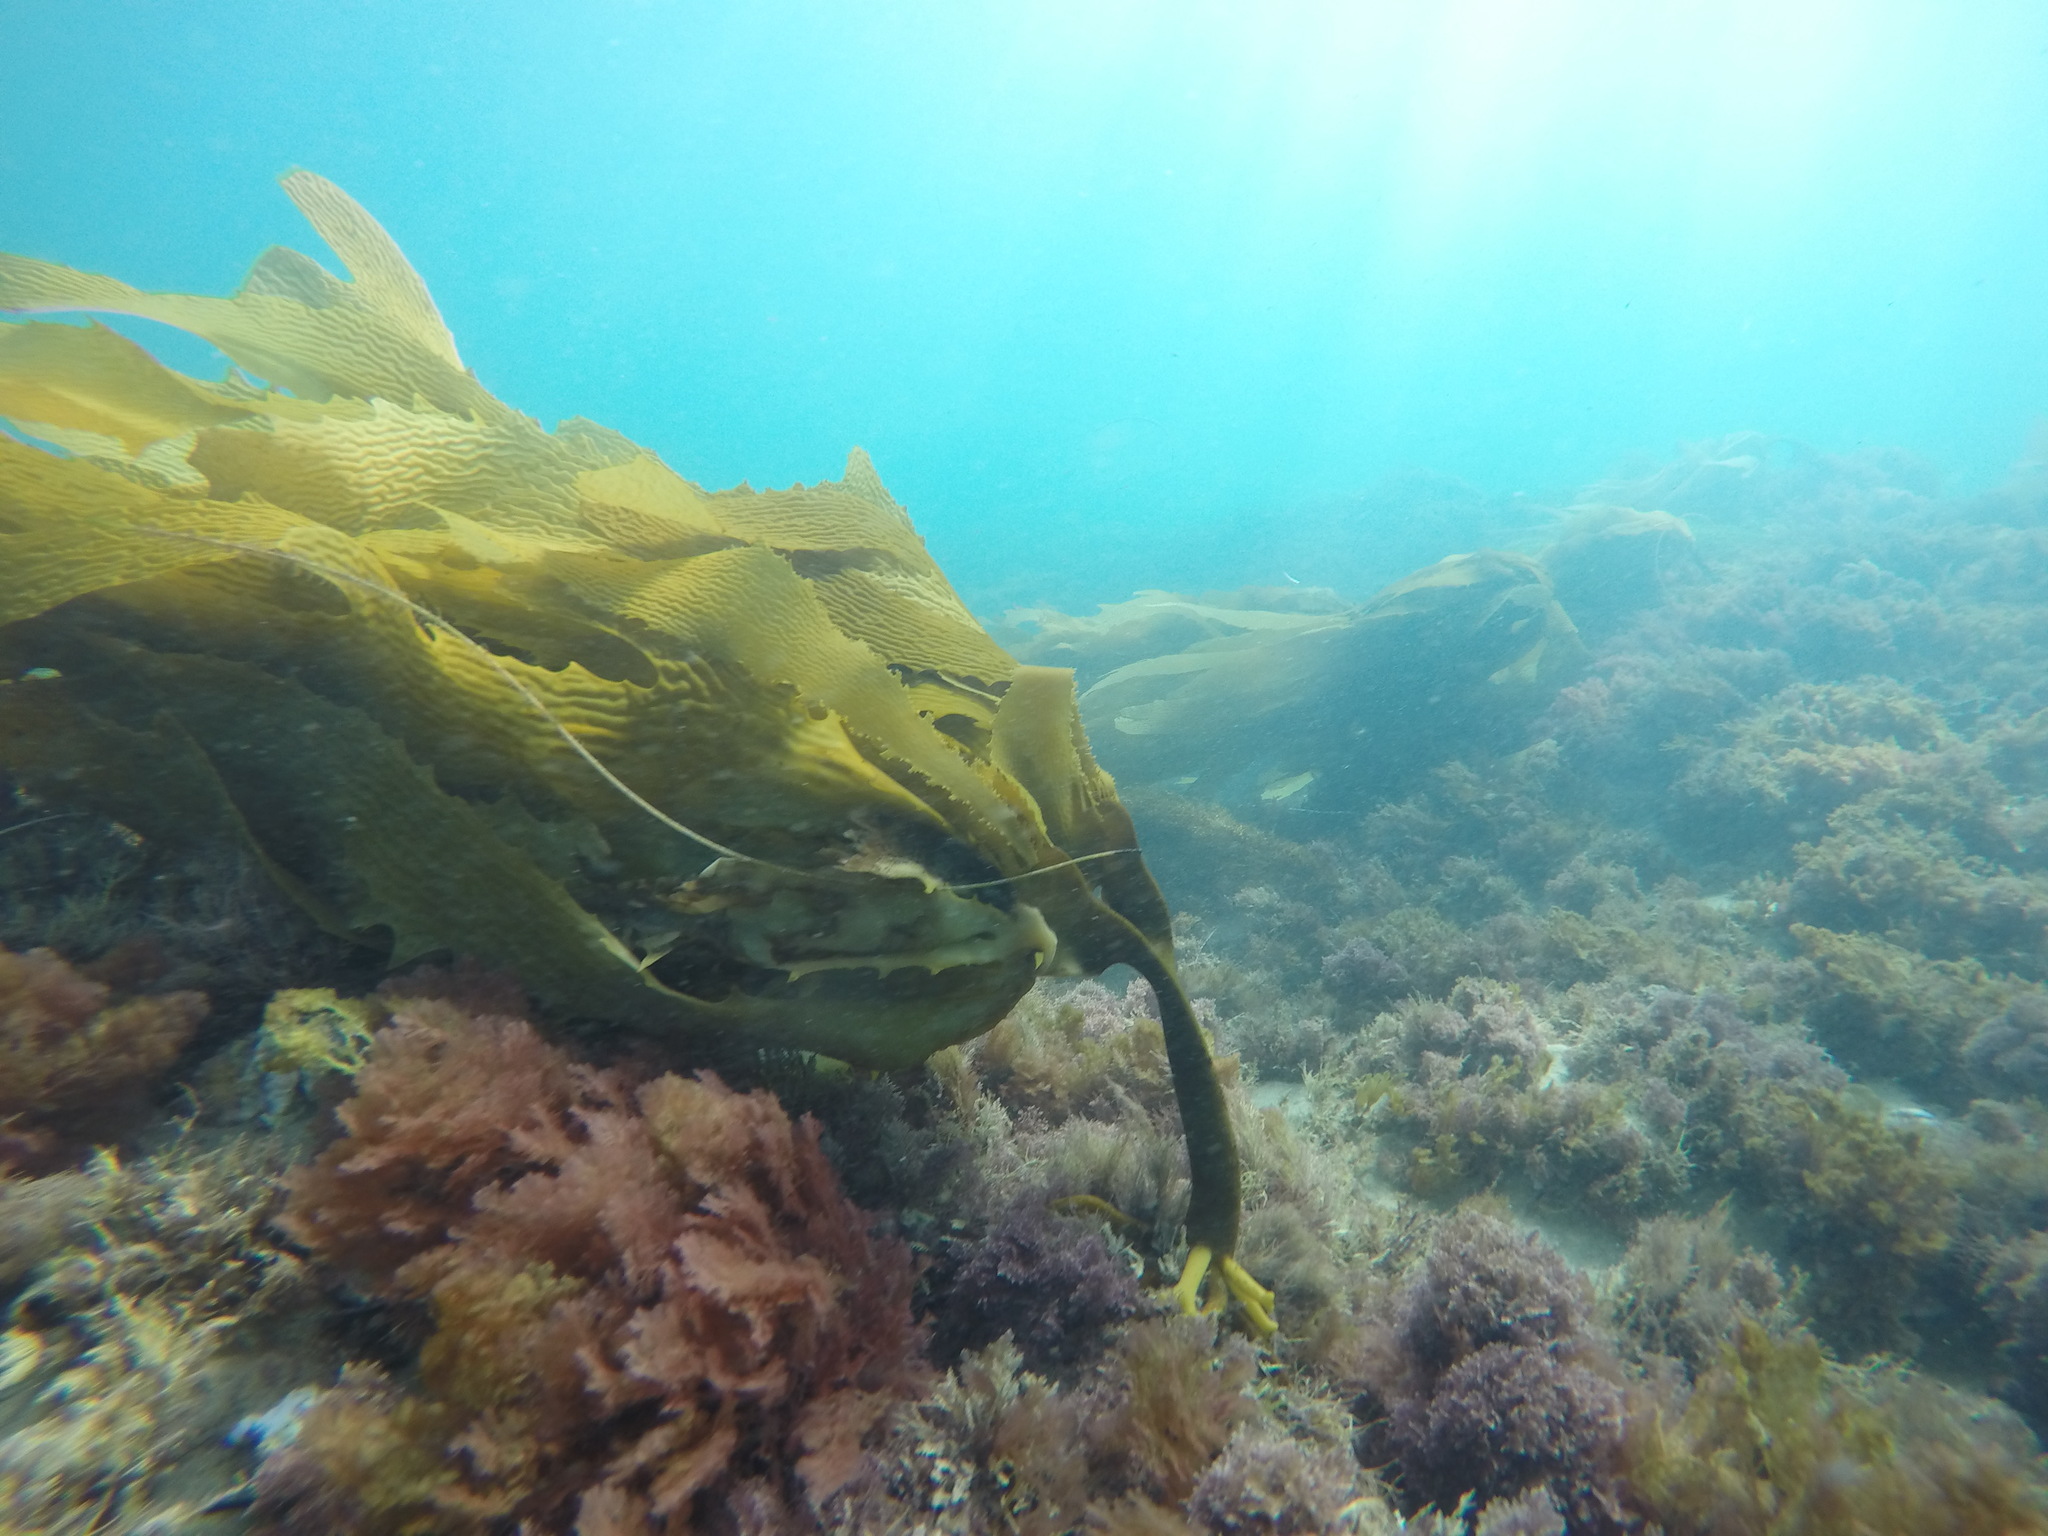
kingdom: Chromista
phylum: Ochrophyta
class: Phaeophyceae
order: Laminariales
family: Lessoniaceae
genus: Eisenia
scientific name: Eisenia arborea
